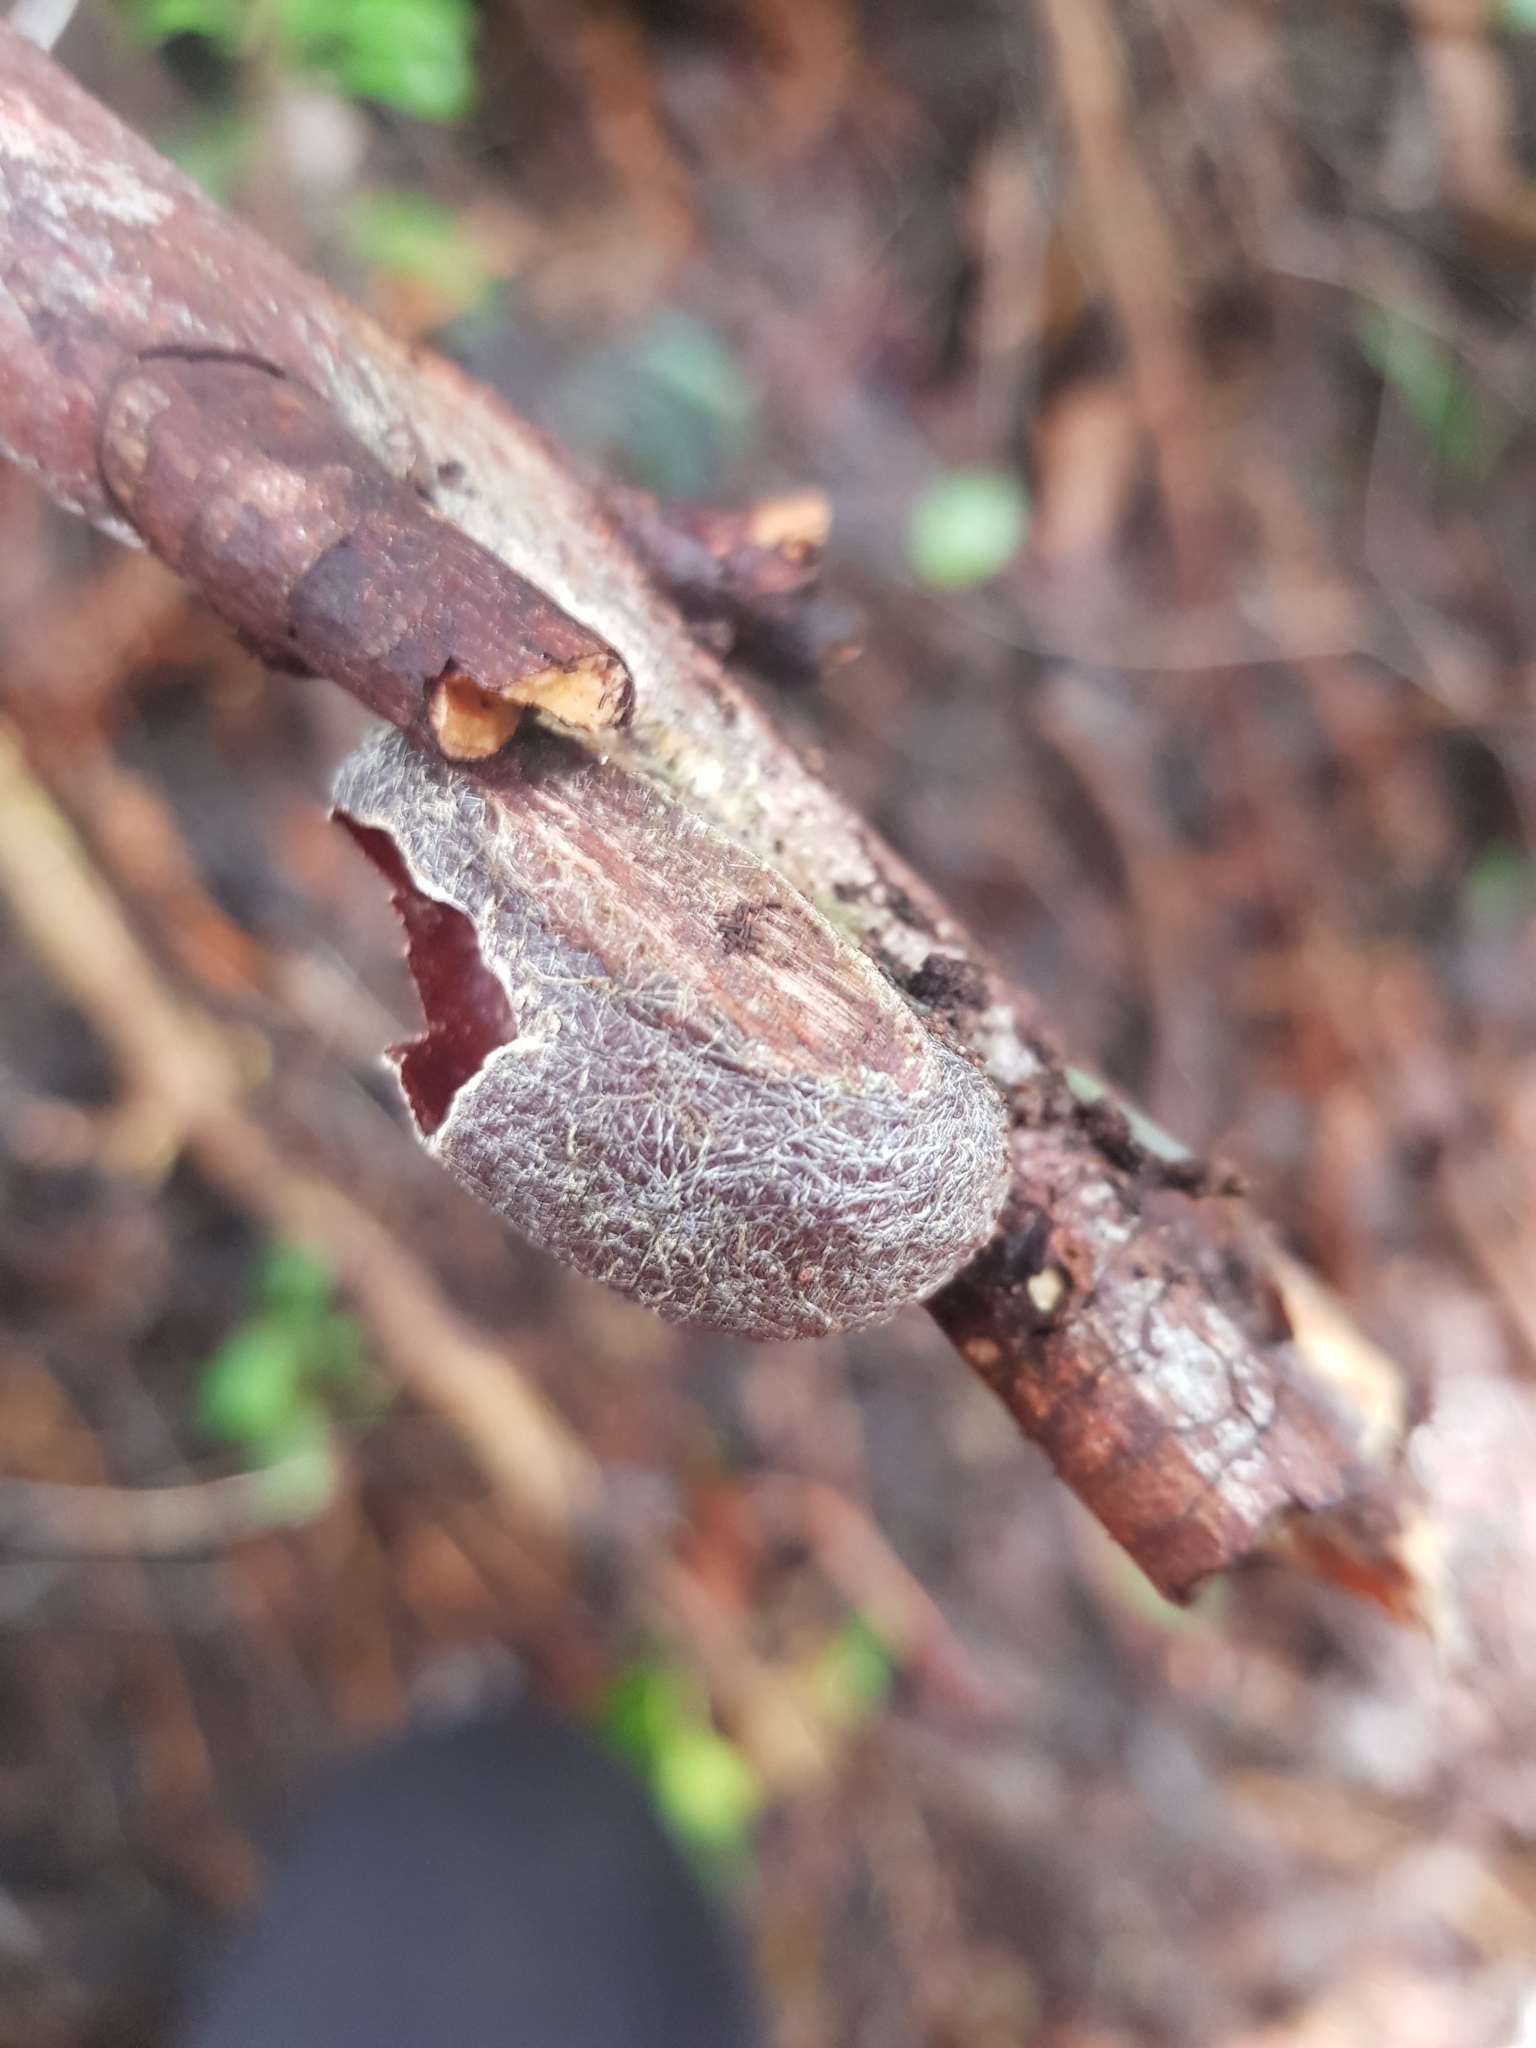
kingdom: Animalia
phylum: Arthropoda
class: Insecta
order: Lepidoptera
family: Saturniidae
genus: Opodiphthera
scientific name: Opodiphthera
